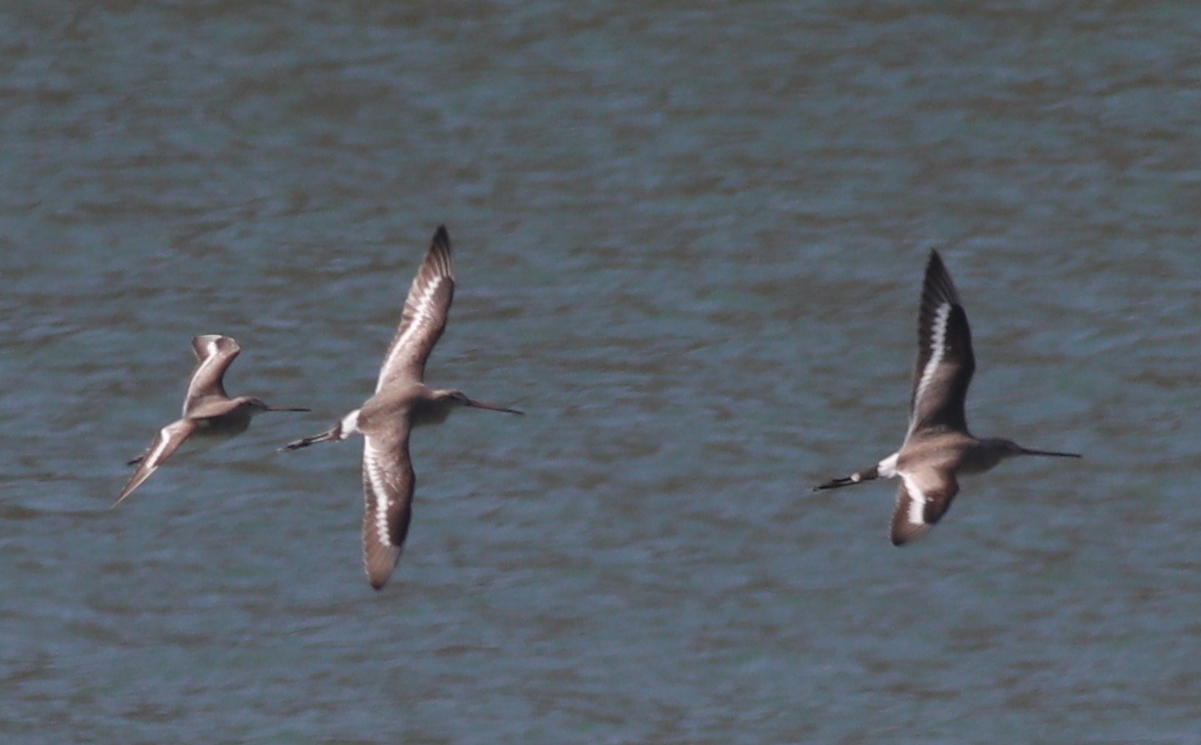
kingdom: Animalia
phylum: Chordata
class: Aves
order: Charadriiformes
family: Scolopacidae
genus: Limosa
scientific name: Limosa limosa
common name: Black-tailed godwit
